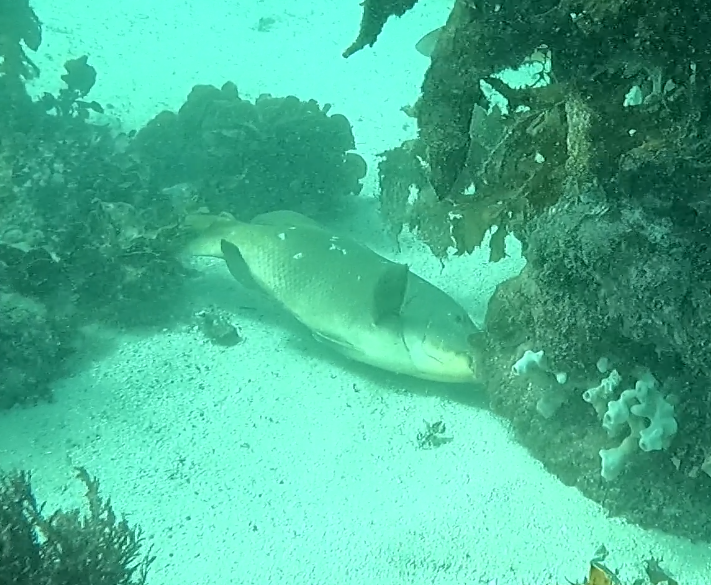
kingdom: Animalia
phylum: Chordata
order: Perciformes
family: Labridae
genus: Achoerodus
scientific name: Achoerodus viridis
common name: Brown groper
